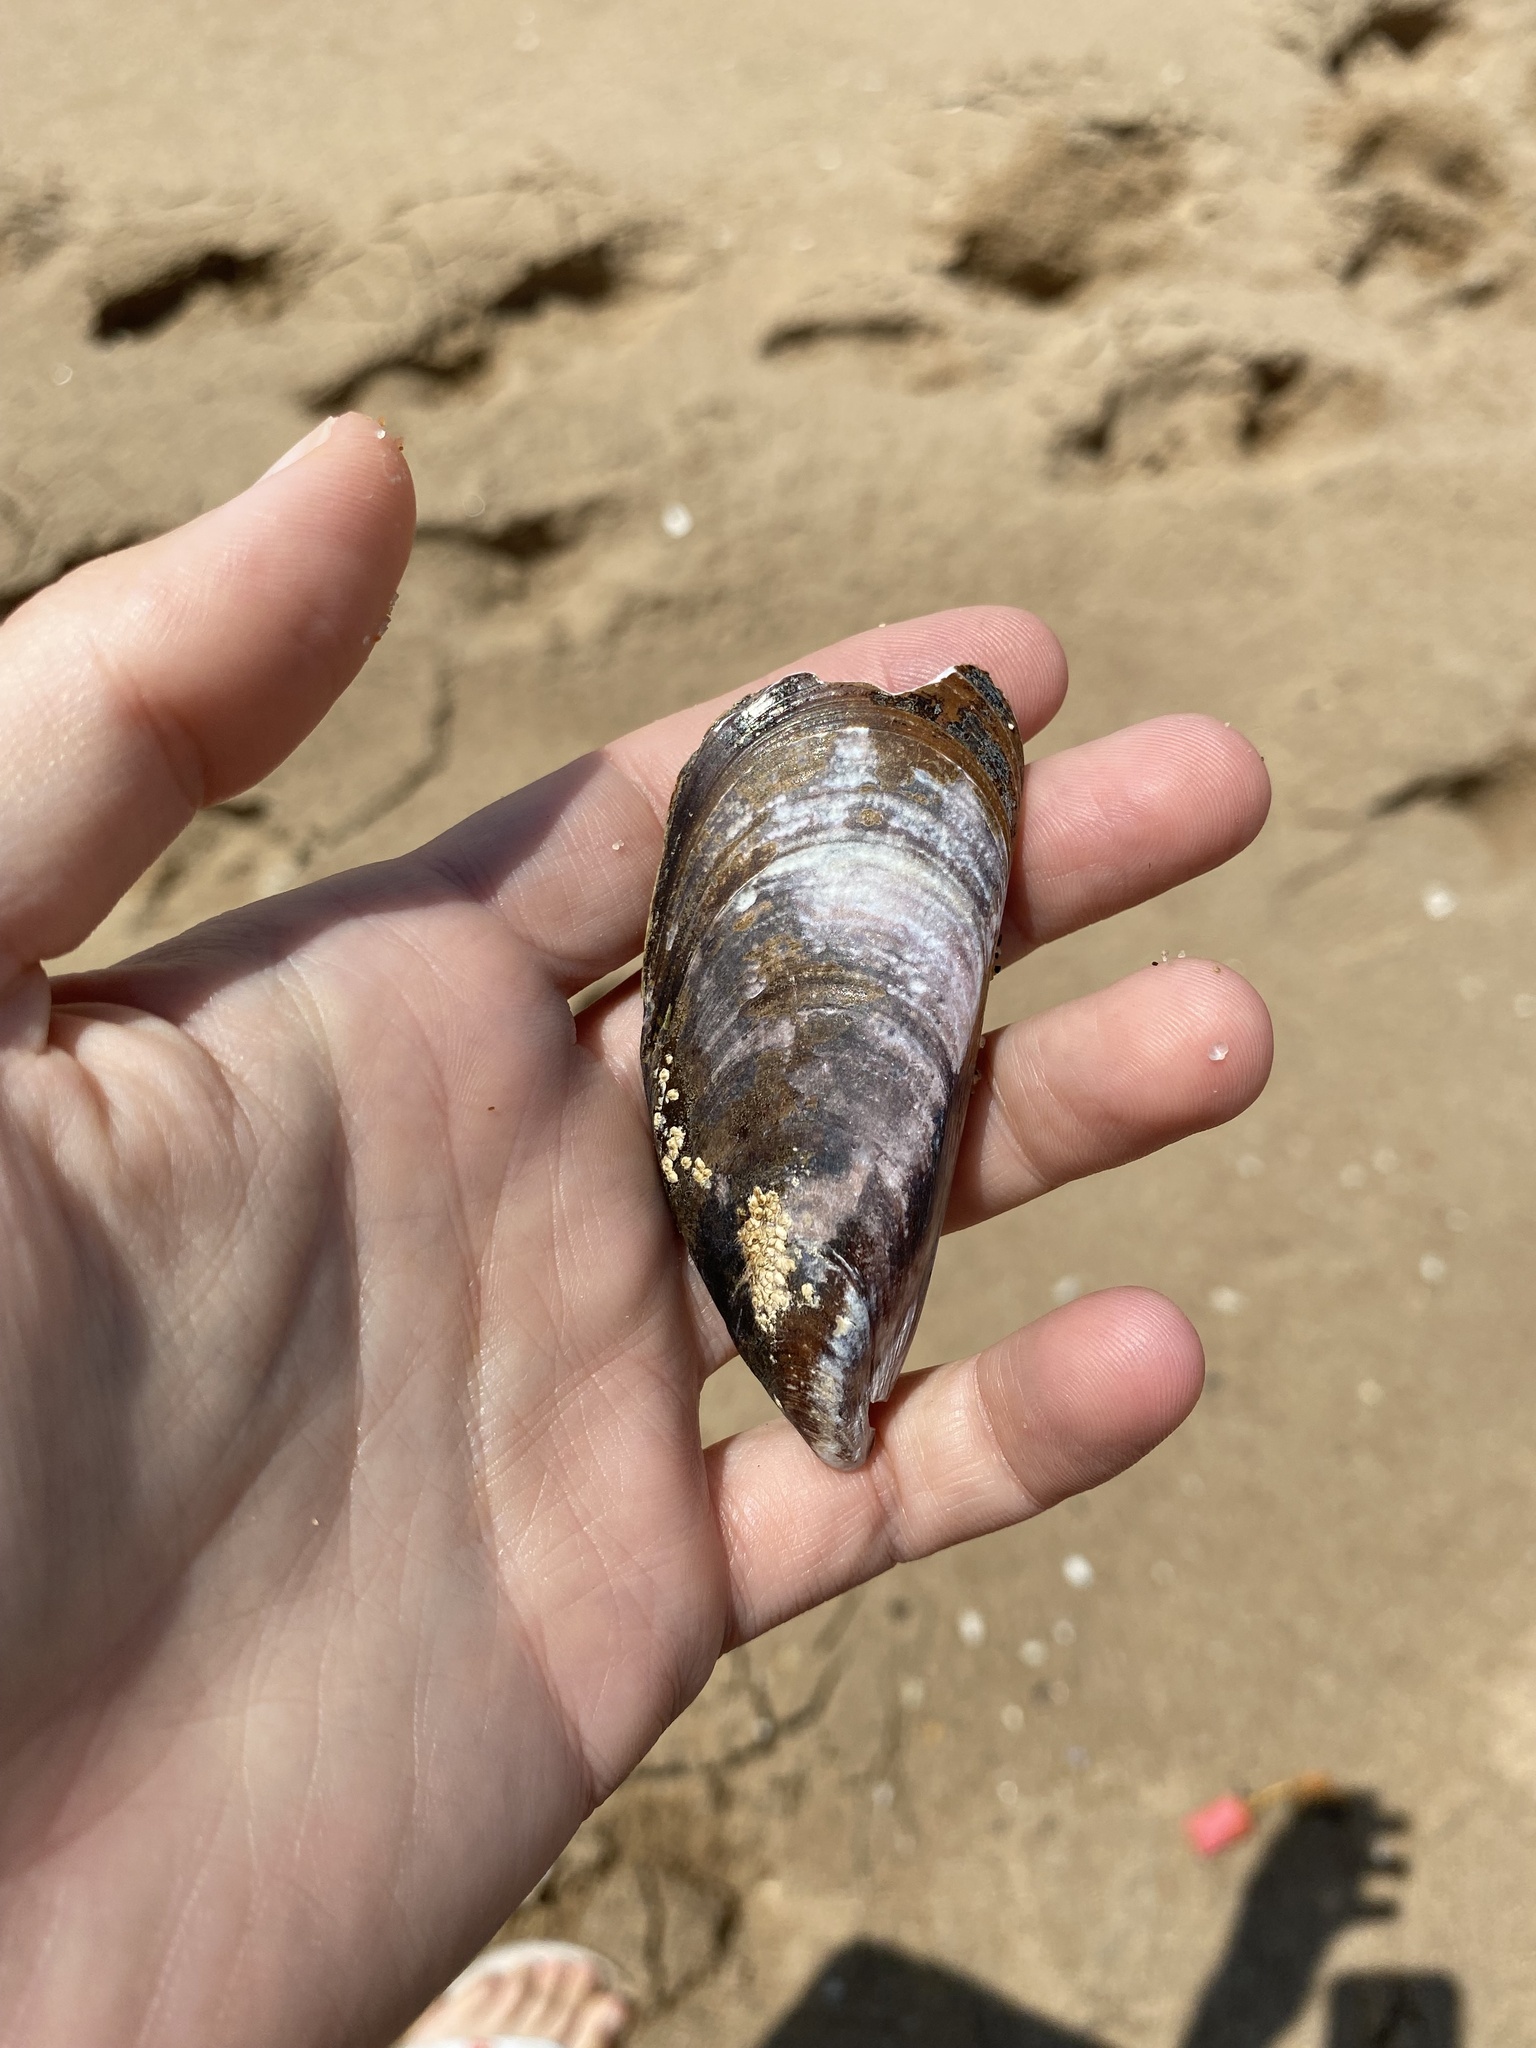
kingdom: Animalia
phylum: Mollusca
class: Bivalvia
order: Mytilida
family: Mytilidae
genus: Perna
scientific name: Perna perna
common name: Mexilhao mussel
